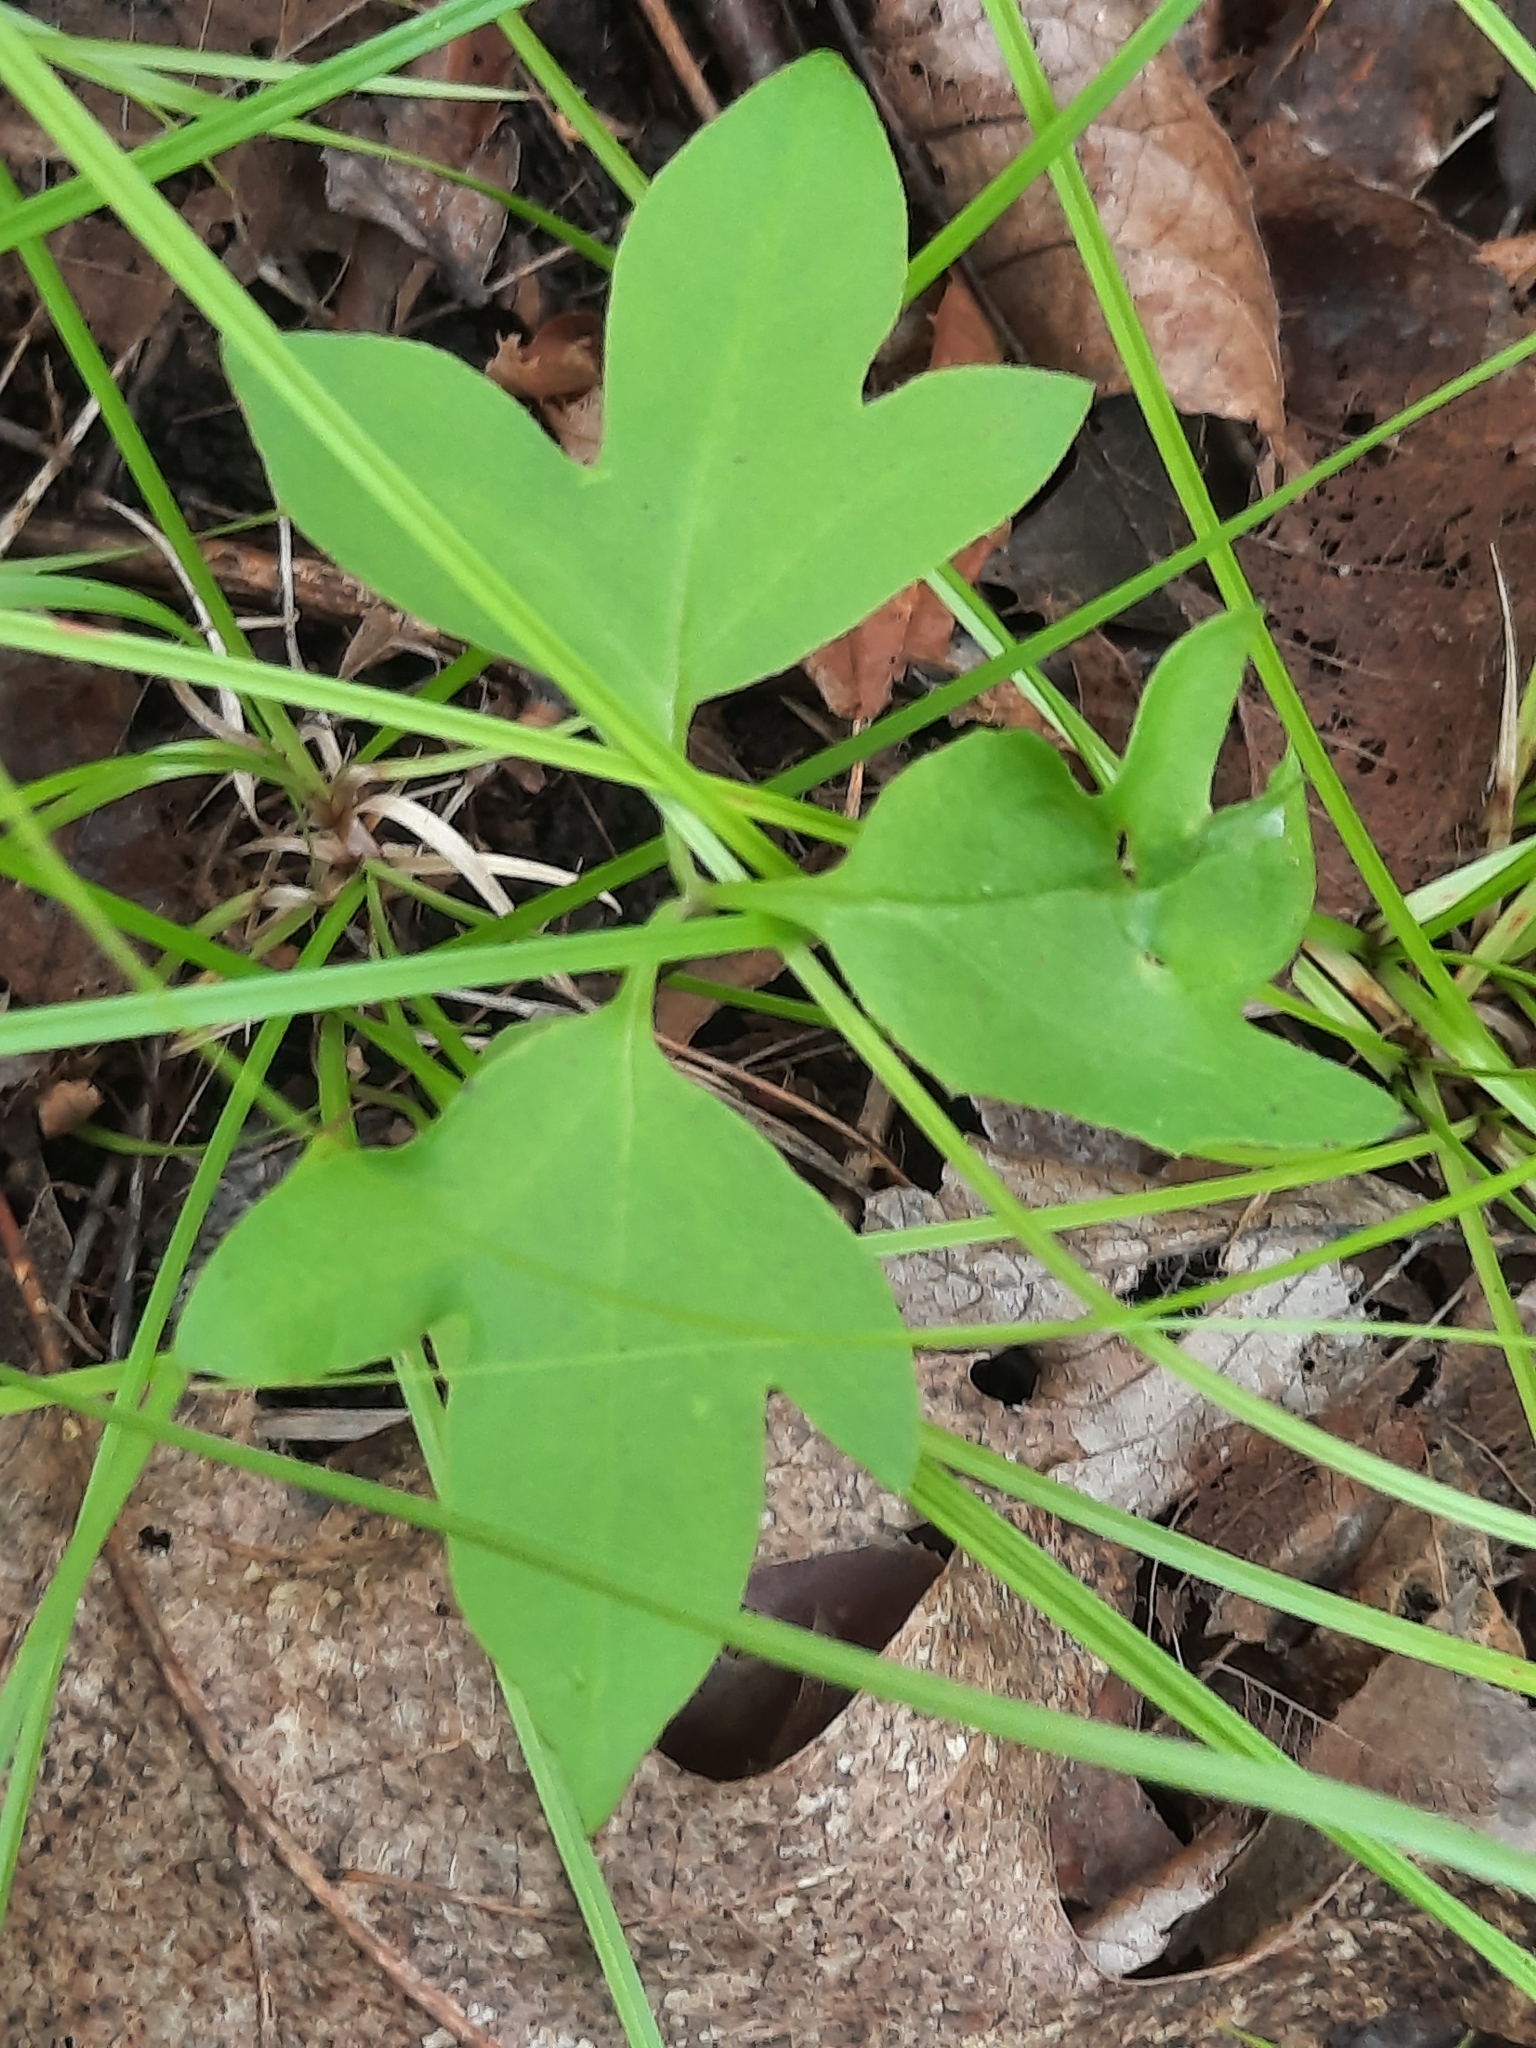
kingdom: Plantae
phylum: Tracheophyta
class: Magnoliopsida
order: Laurales
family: Lauraceae
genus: Sassafras
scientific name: Sassafras albidum
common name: Sassafras
